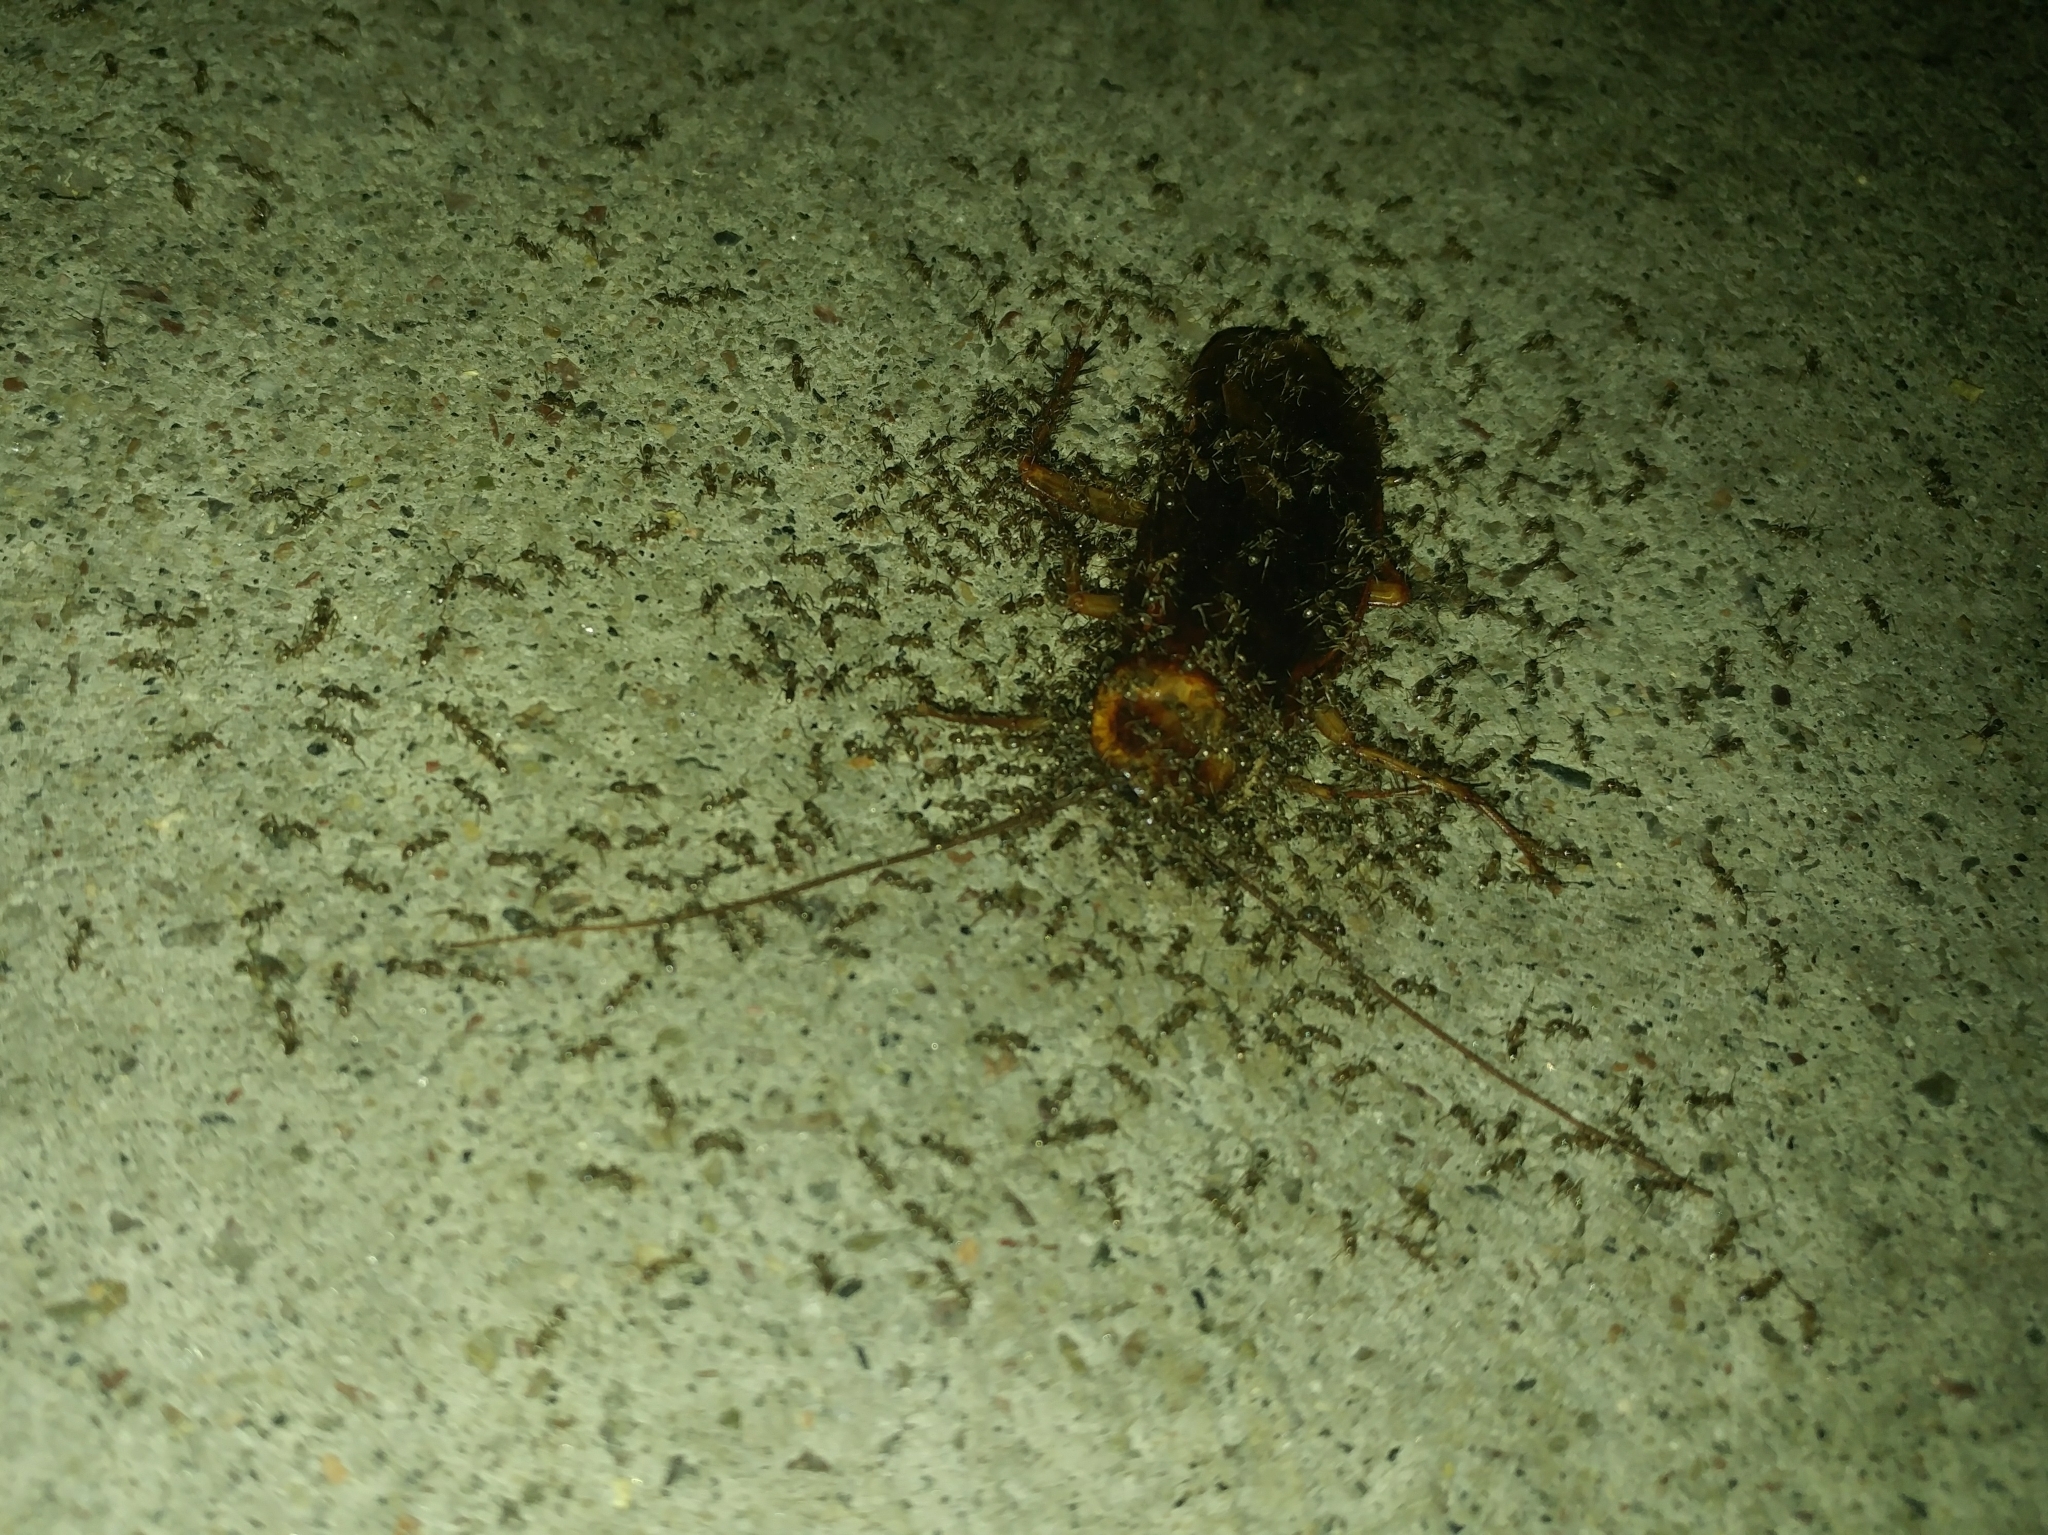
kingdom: Animalia
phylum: Arthropoda
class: Insecta
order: Hymenoptera
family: Formicidae
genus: Linepithema
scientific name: Linepithema humile
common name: Argentine ant
